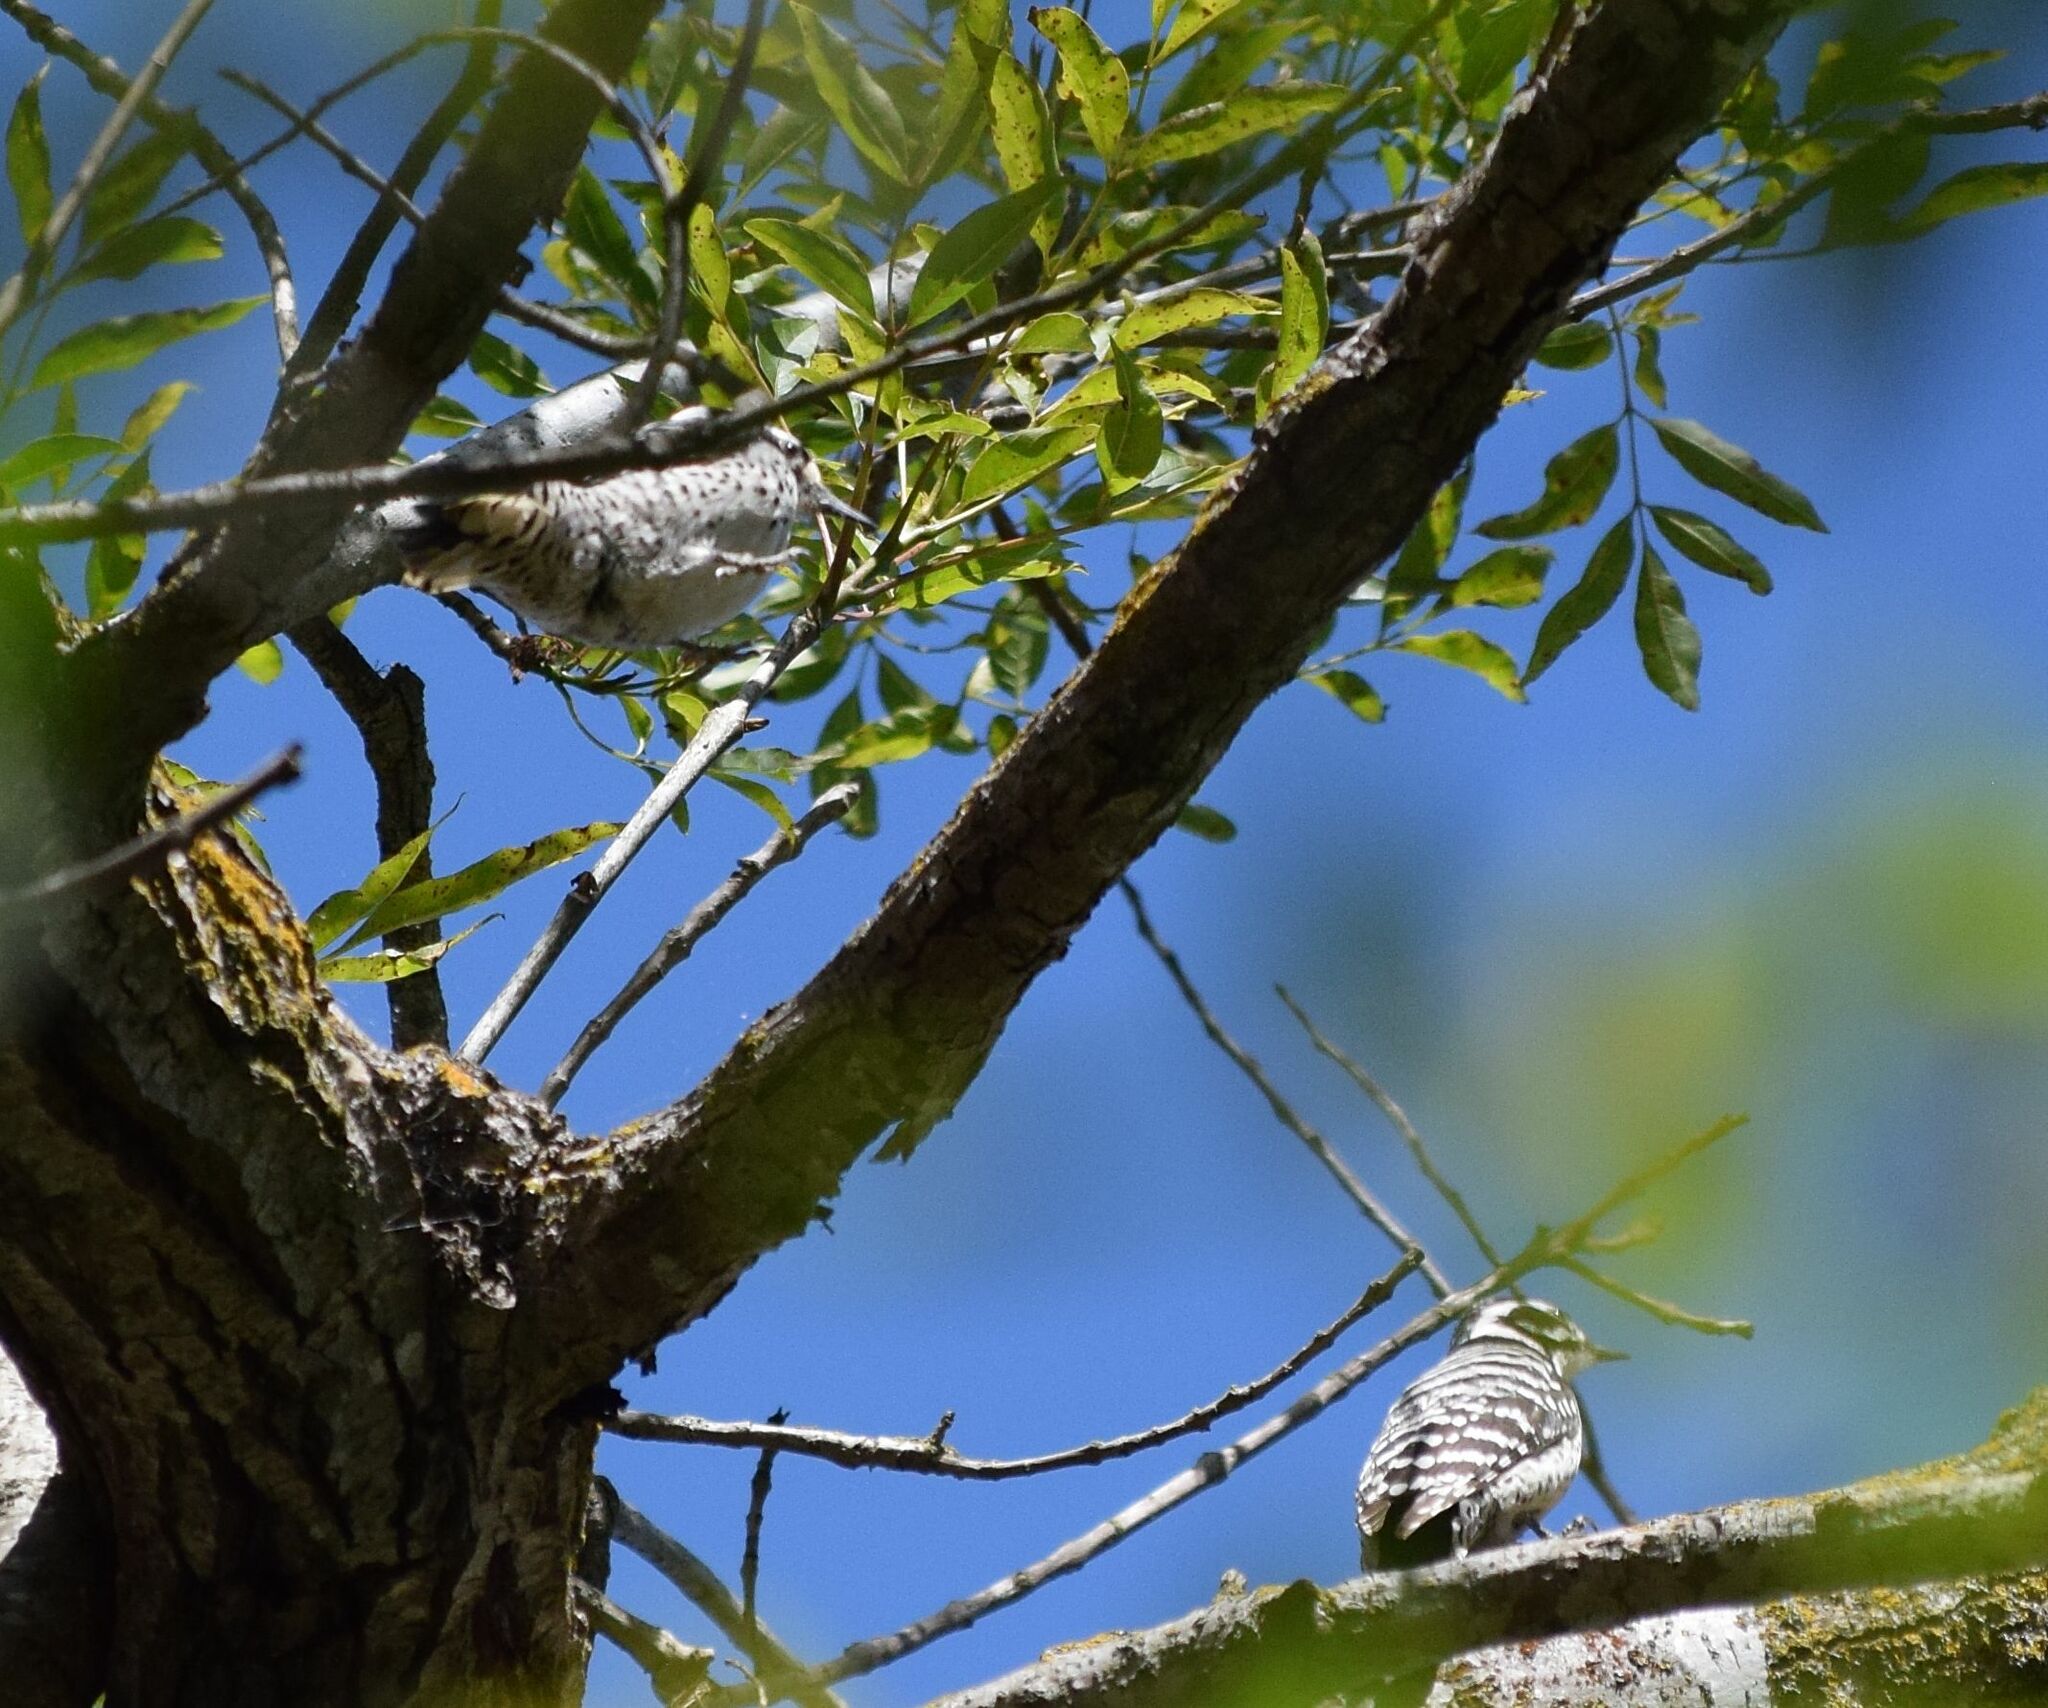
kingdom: Animalia
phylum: Chordata
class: Aves
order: Piciformes
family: Picidae
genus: Dryobates
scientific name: Dryobates nuttallii
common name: Nuttall's woodpecker
